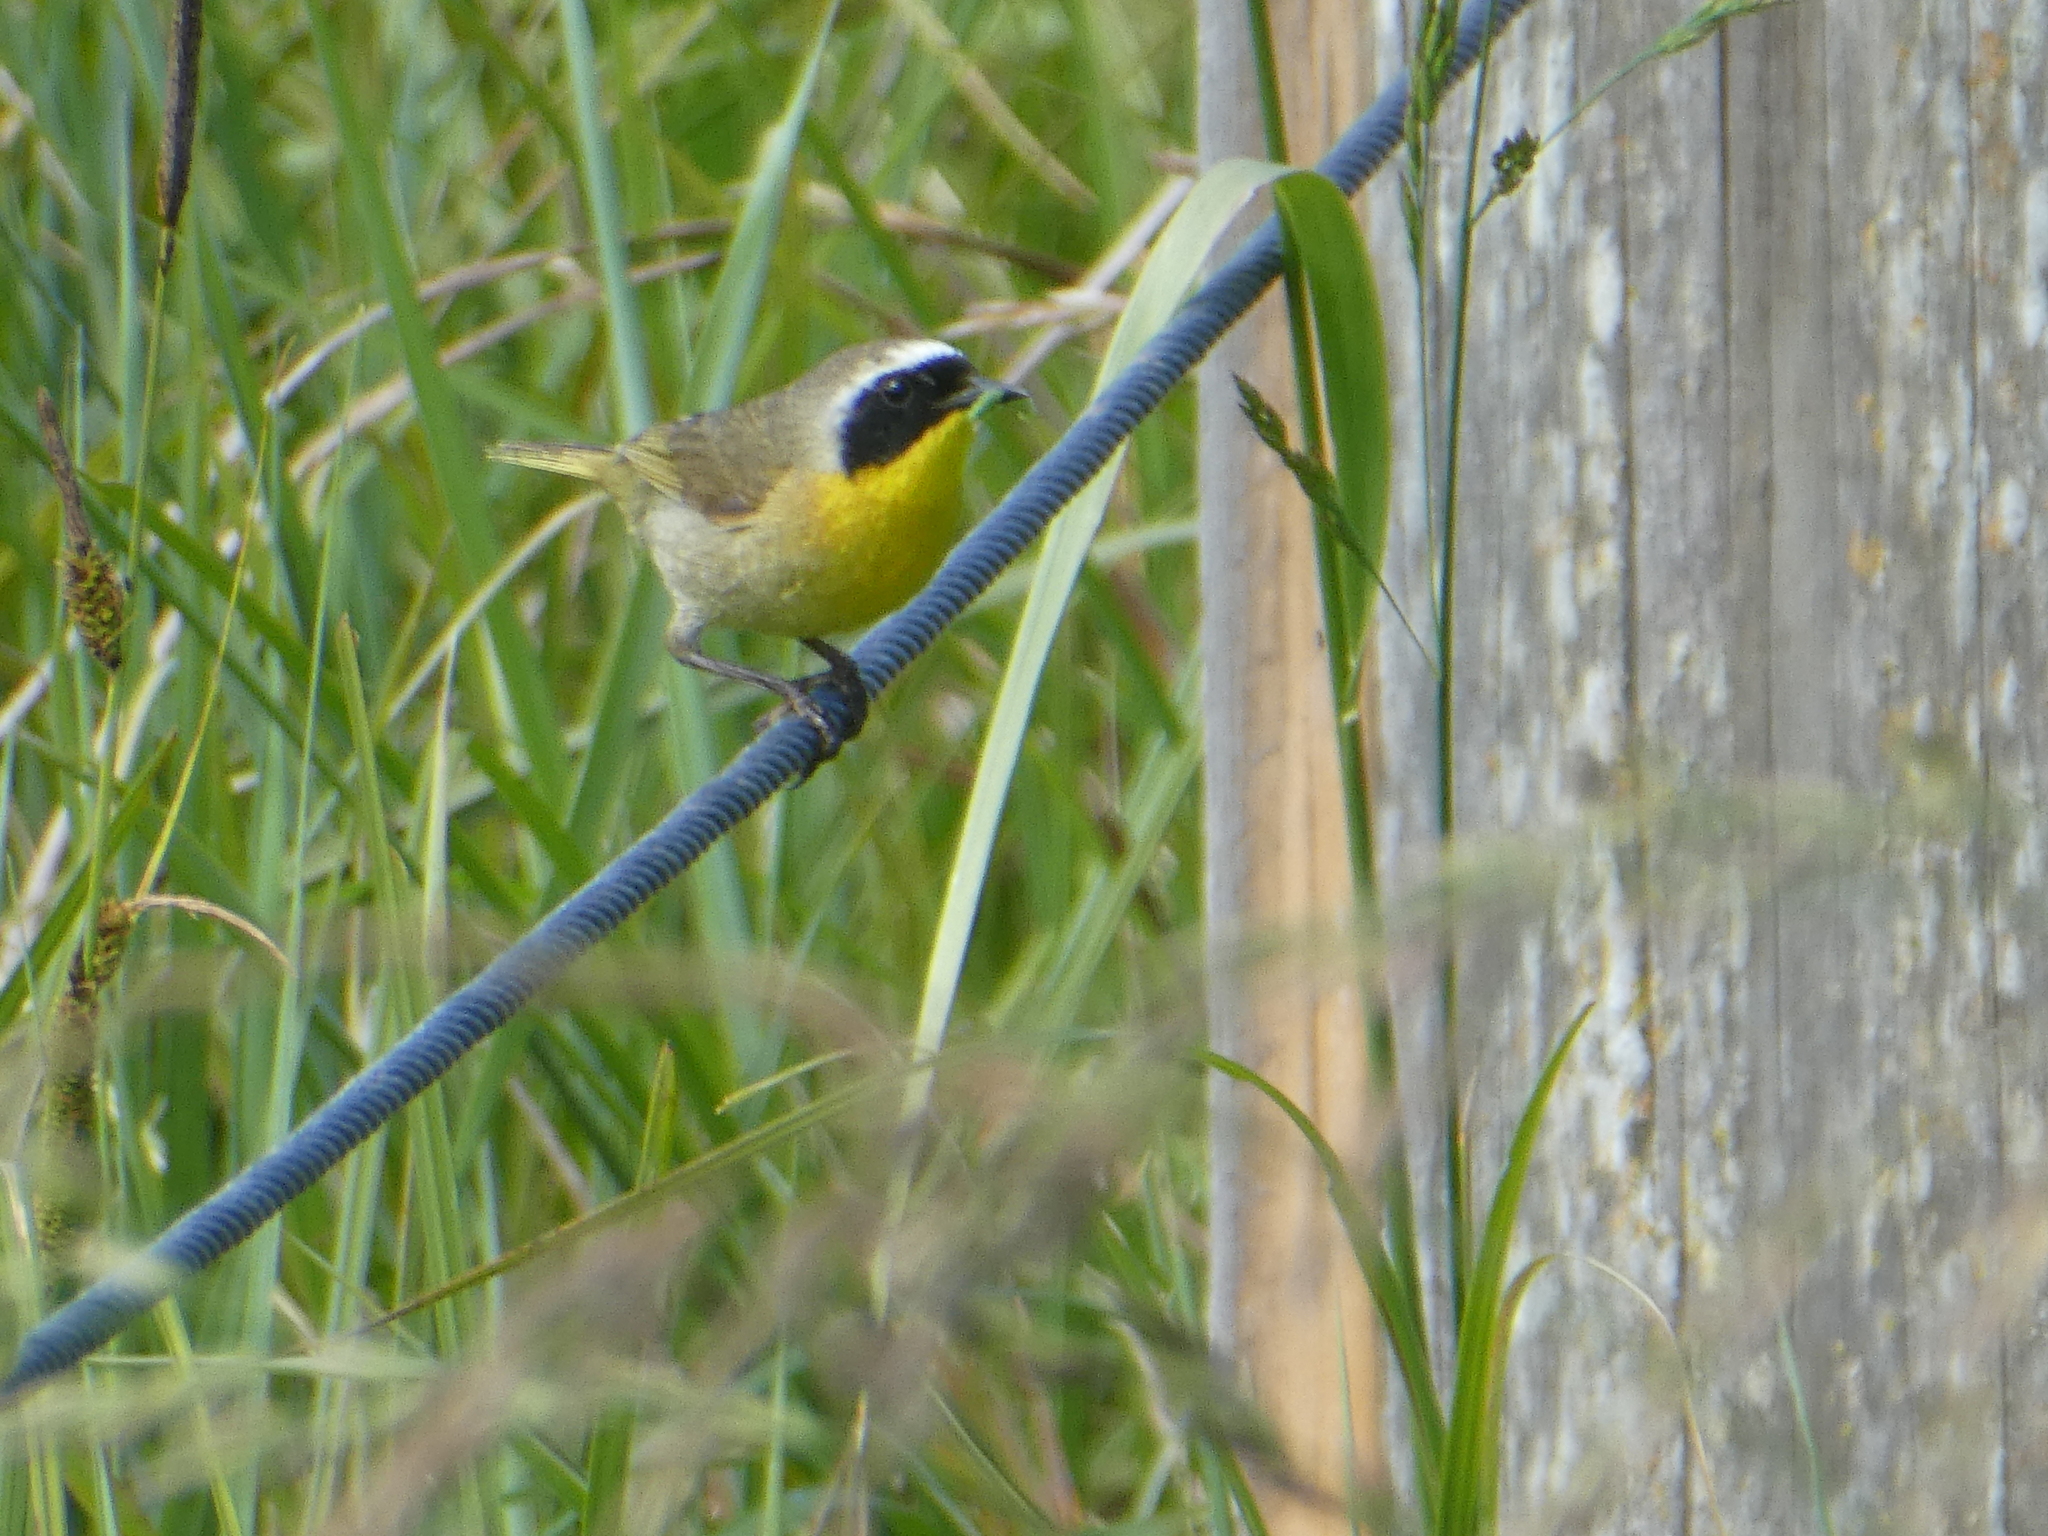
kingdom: Animalia
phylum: Chordata
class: Aves
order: Passeriformes
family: Parulidae
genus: Geothlypis
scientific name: Geothlypis trichas
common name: Common yellowthroat
